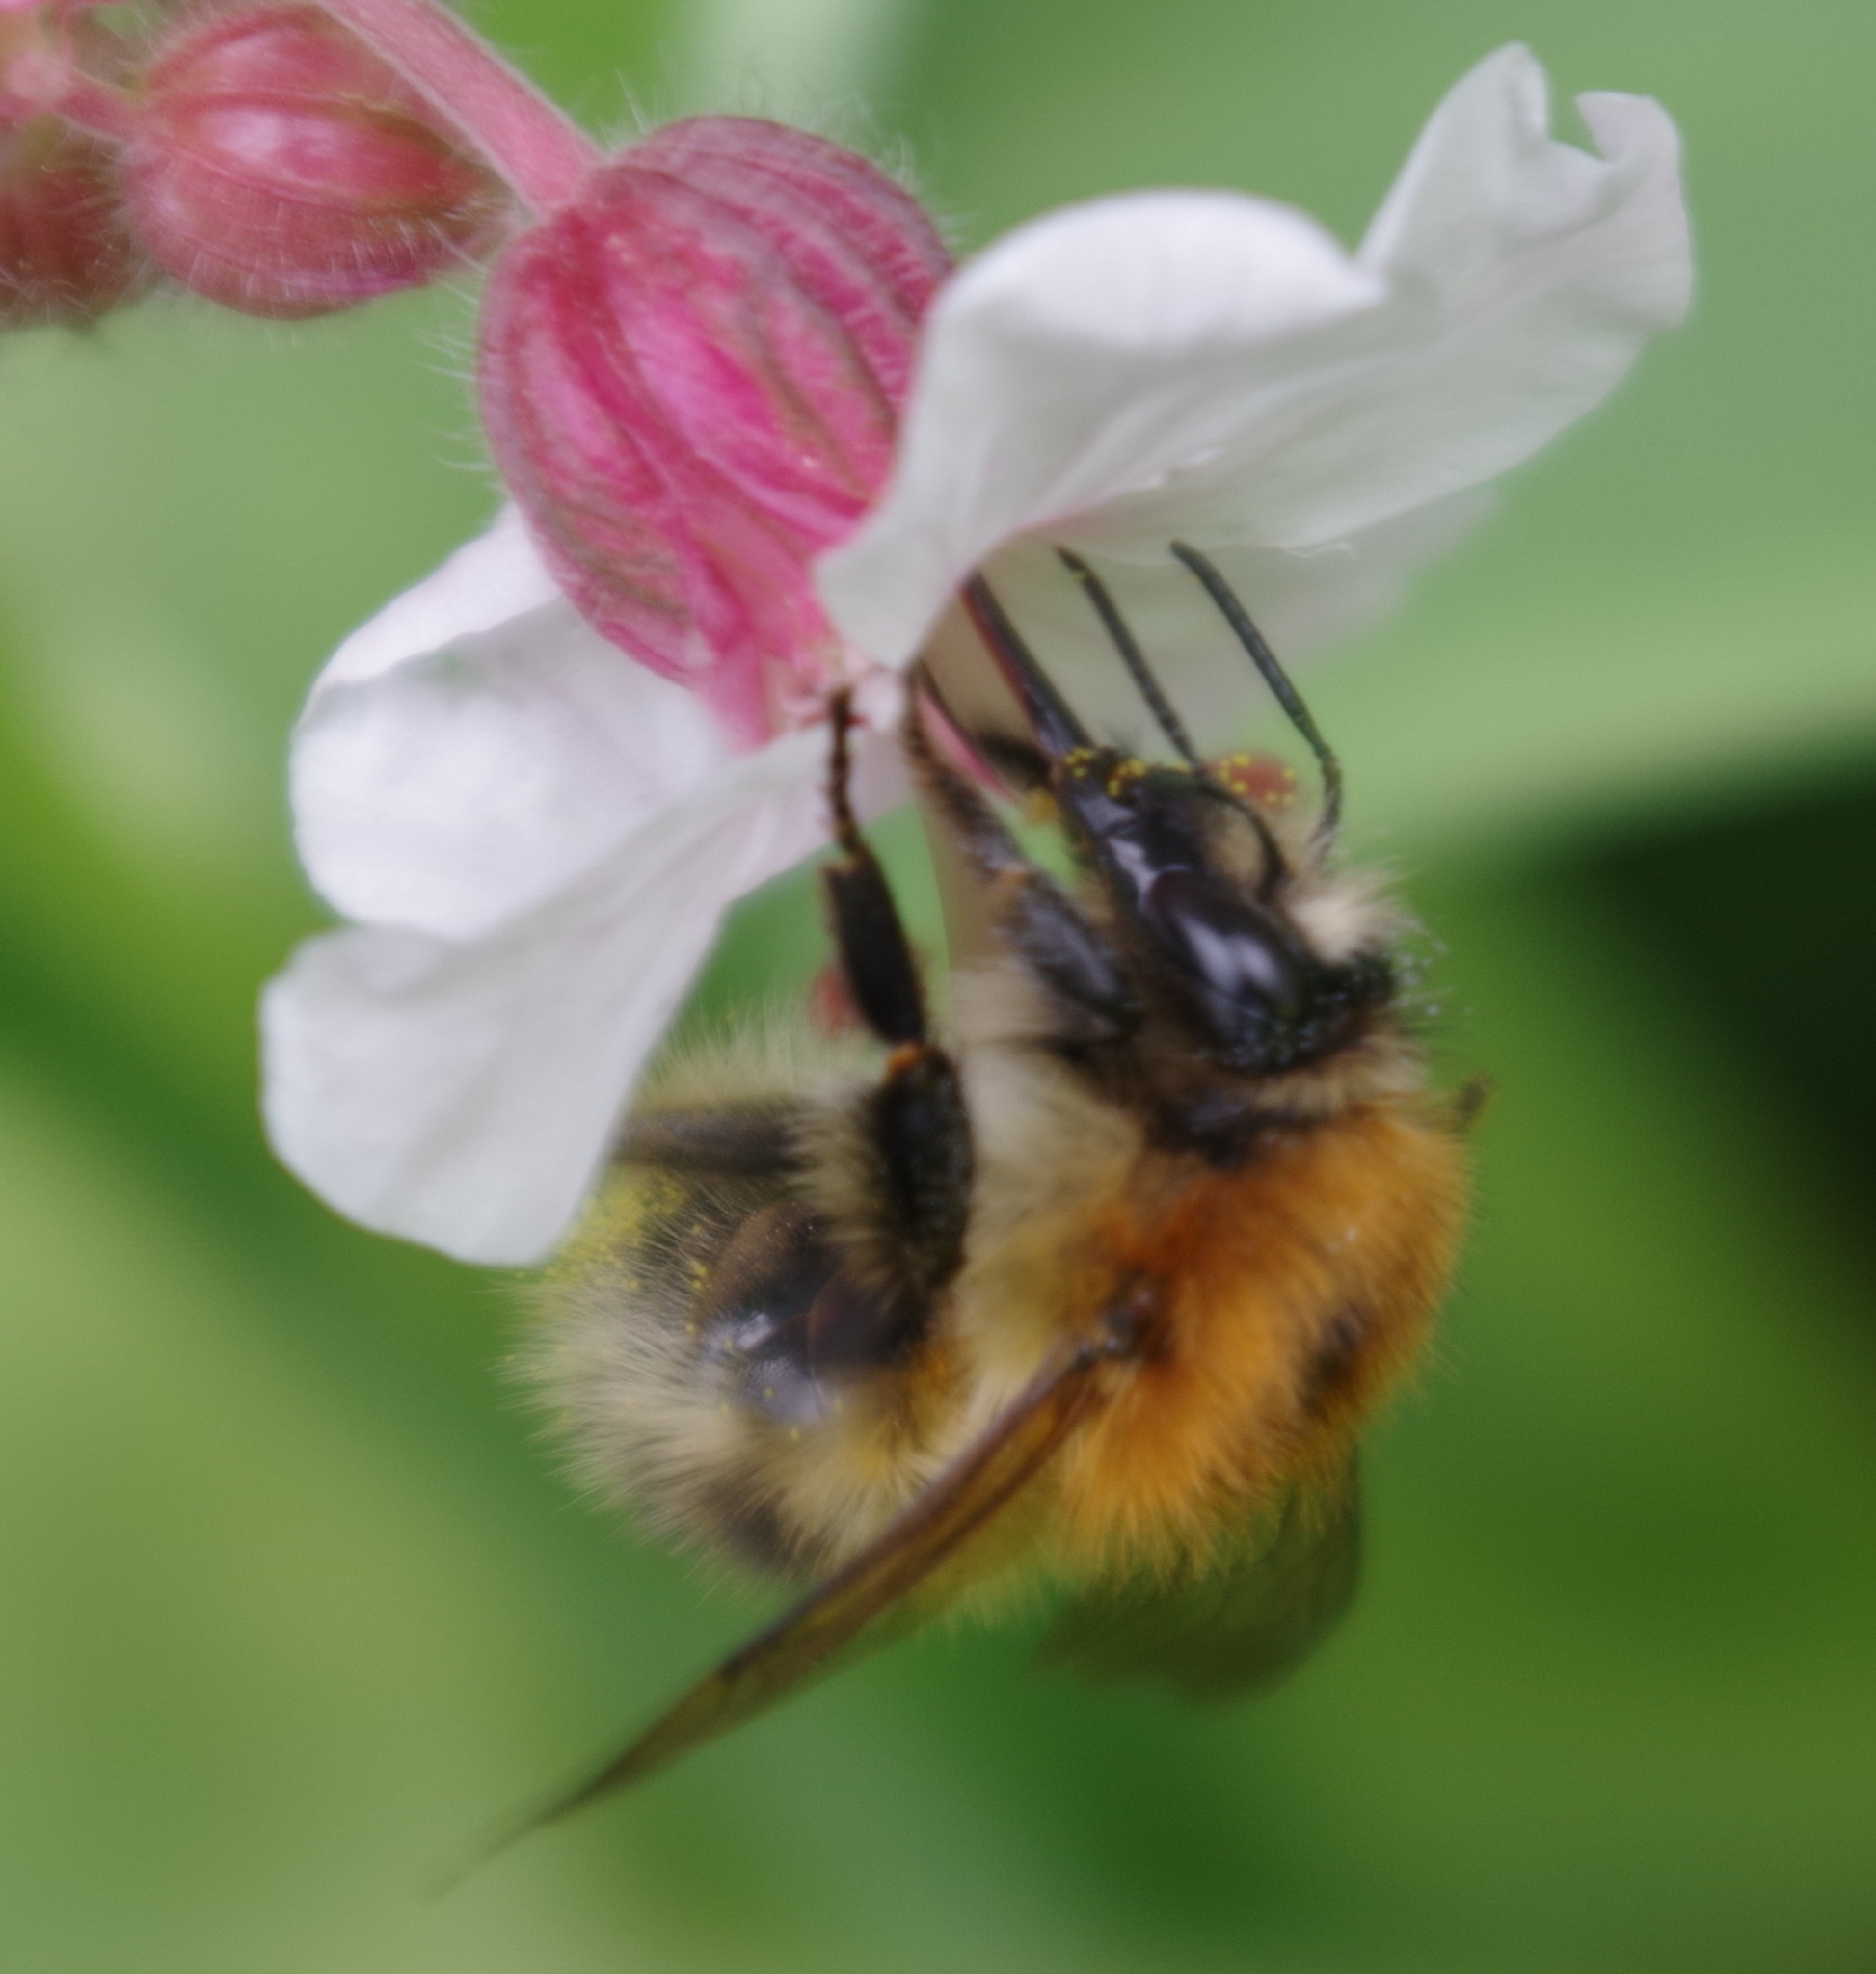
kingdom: Animalia
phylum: Arthropoda
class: Insecta
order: Hymenoptera
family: Apidae
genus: Bombus
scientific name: Bombus pascuorum
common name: Common carder bee
